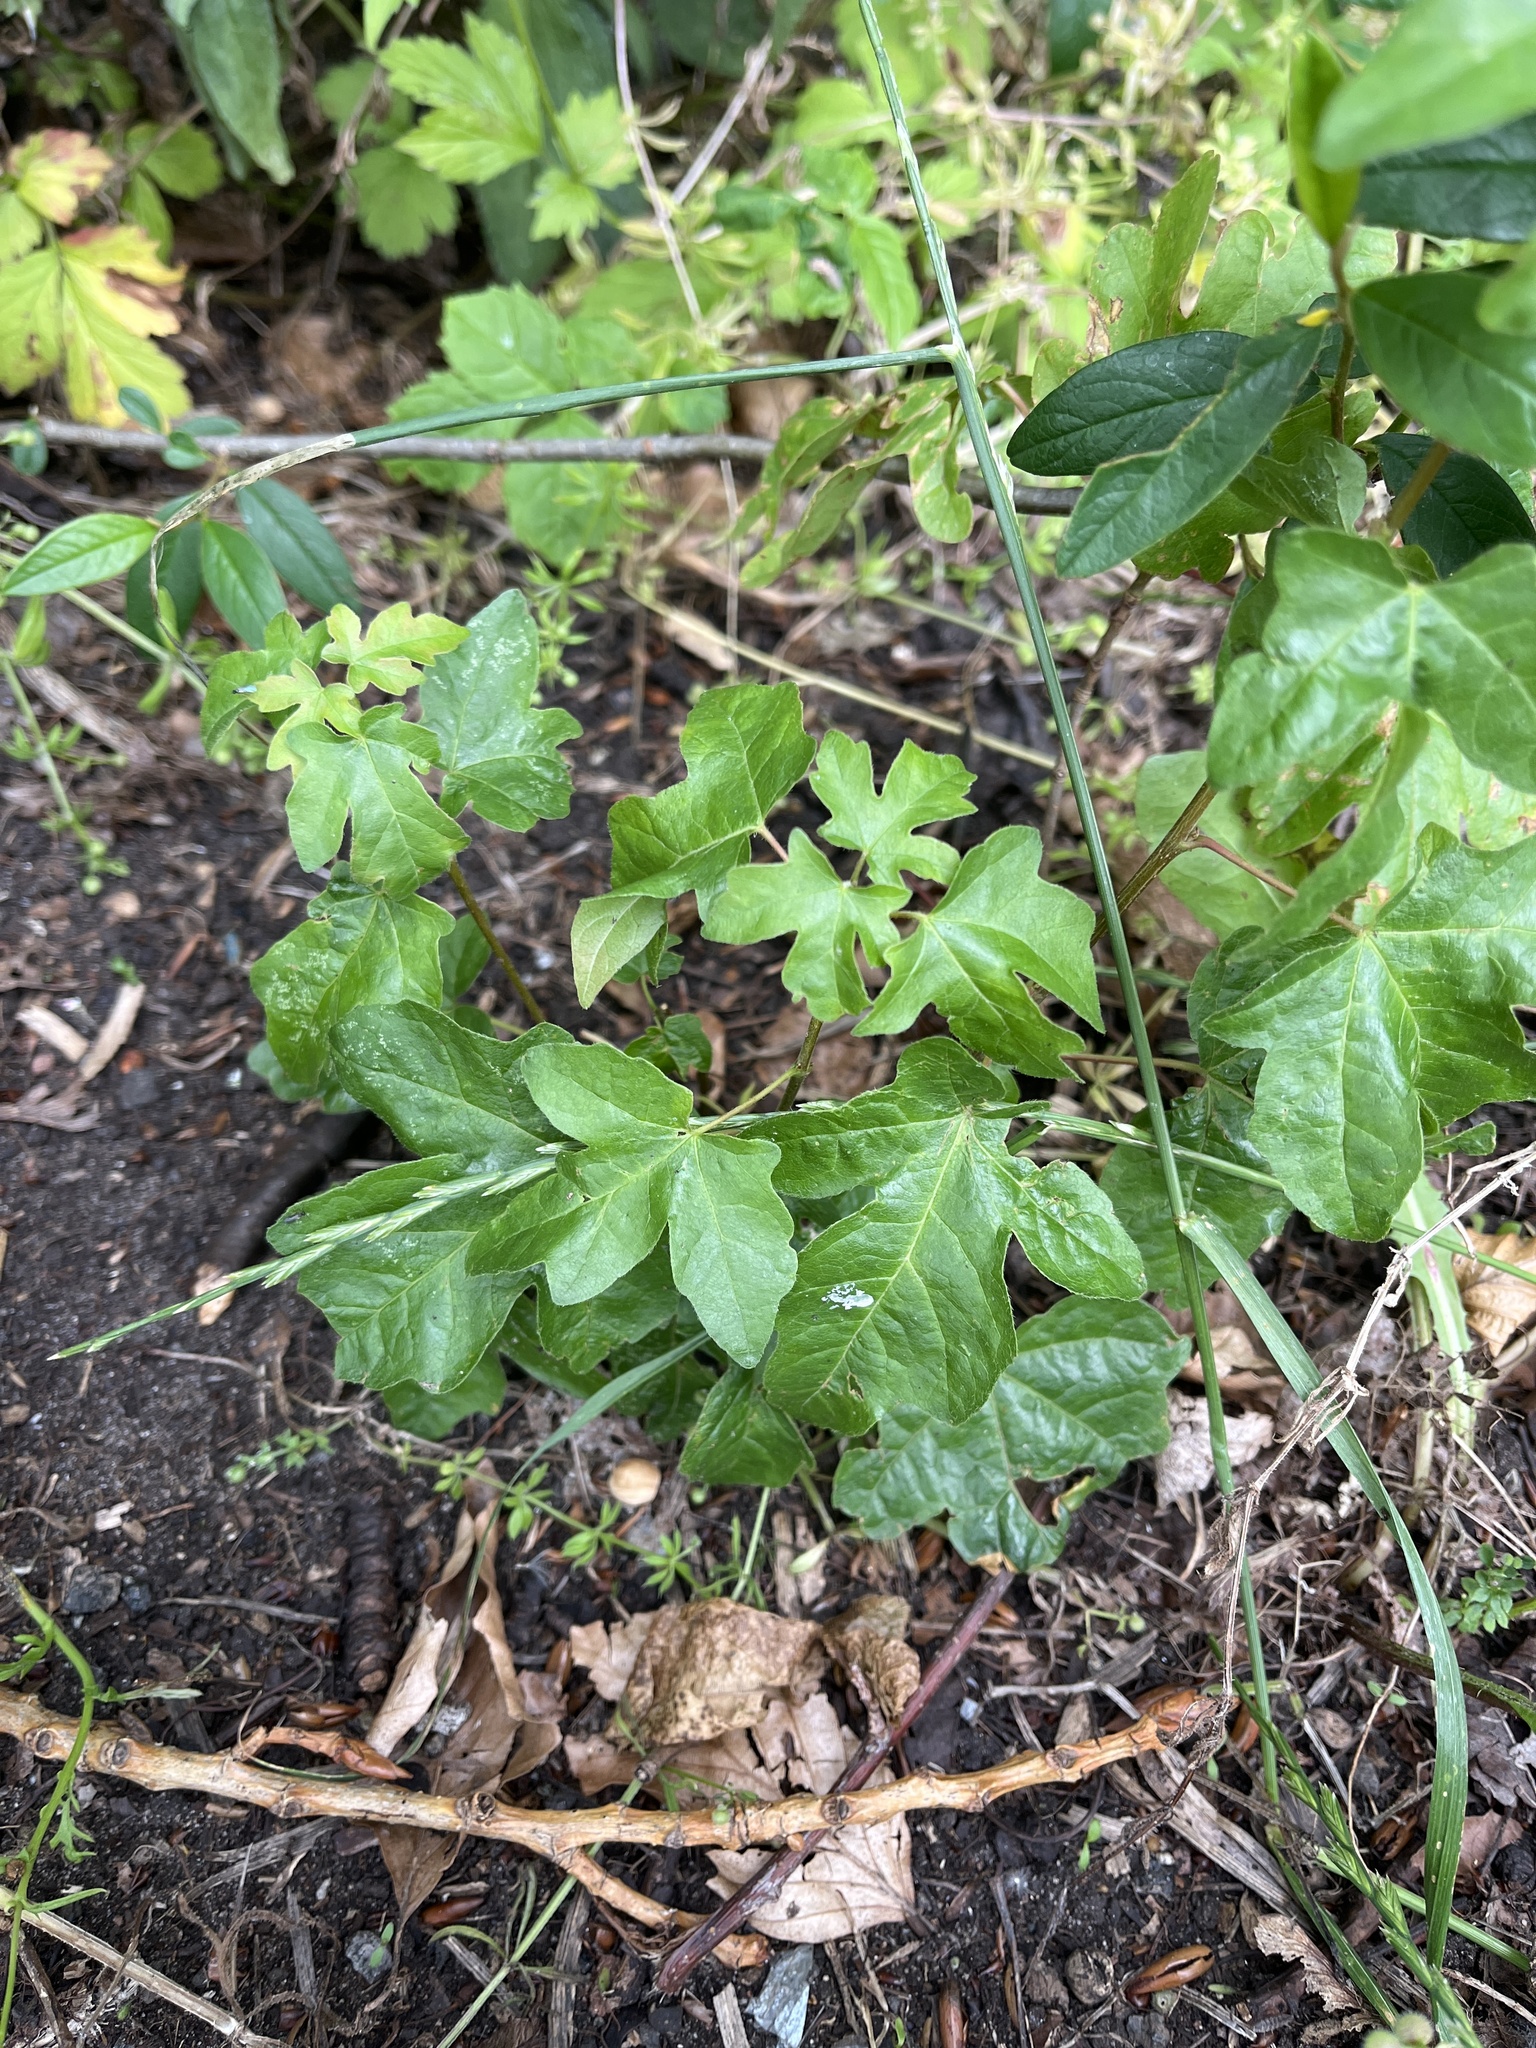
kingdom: Plantae
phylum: Tracheophyta
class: Magnoliopsida
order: Sapindales
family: Sapindaceae
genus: Acer
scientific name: Acer campestre
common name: Field maple
